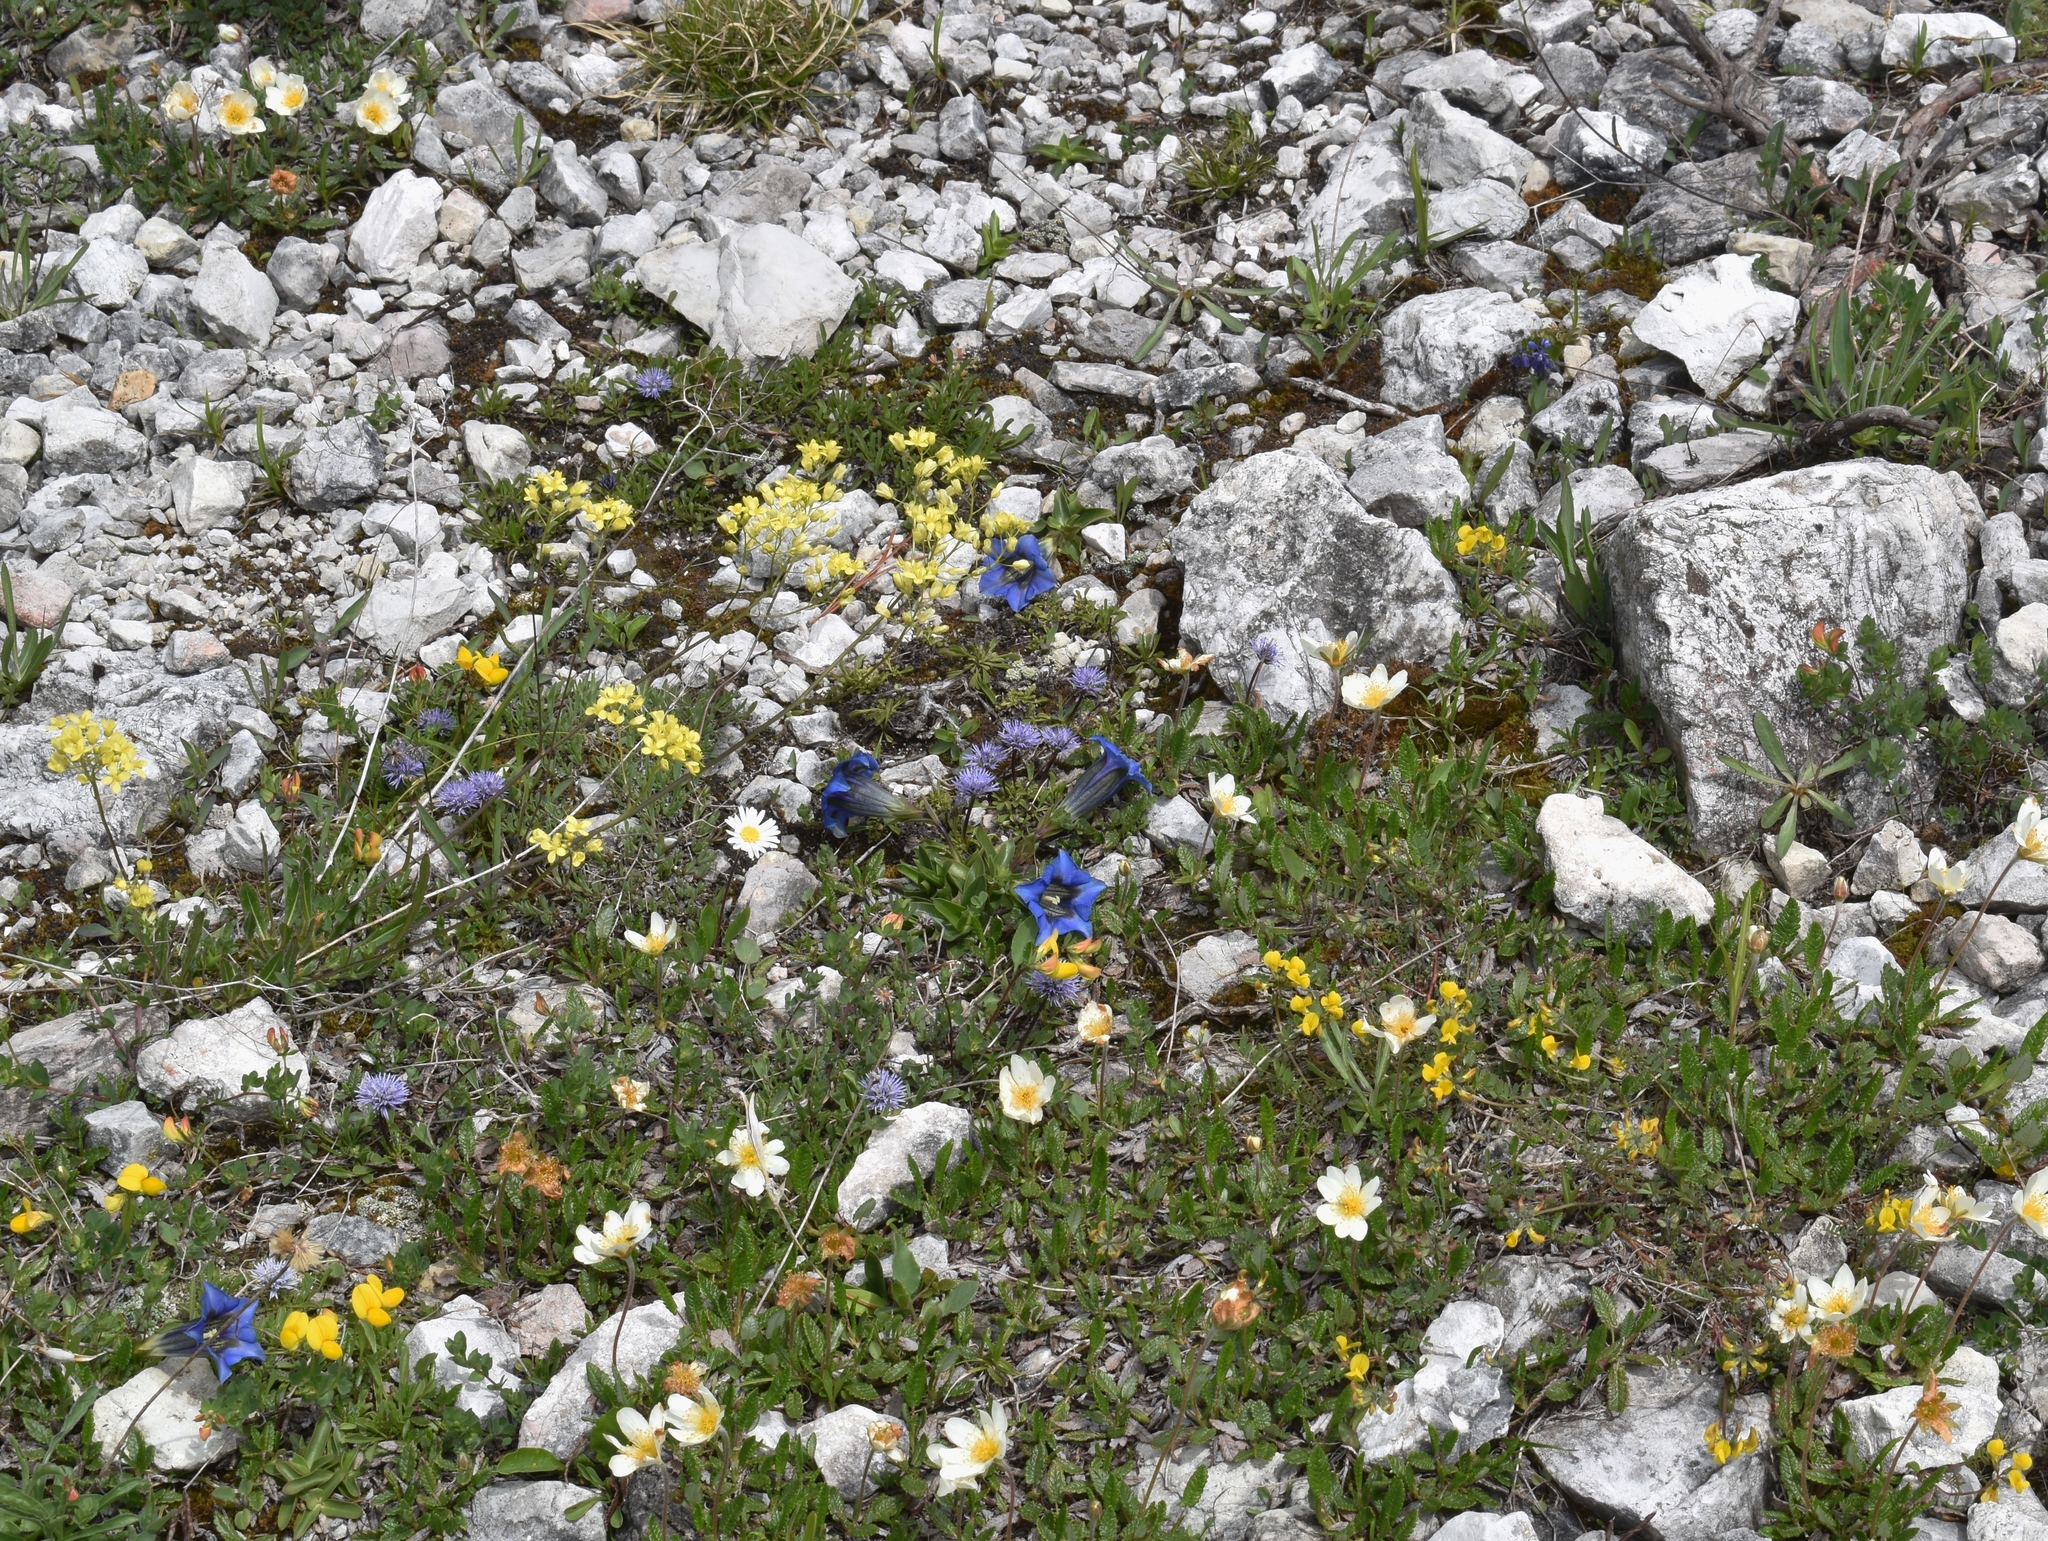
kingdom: Plantae
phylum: Tracheophyta
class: Magnoliopsida
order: Gentianales
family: Gentianaceae
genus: Gentiana
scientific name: Gentiana clusii
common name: Trumpet gentian
